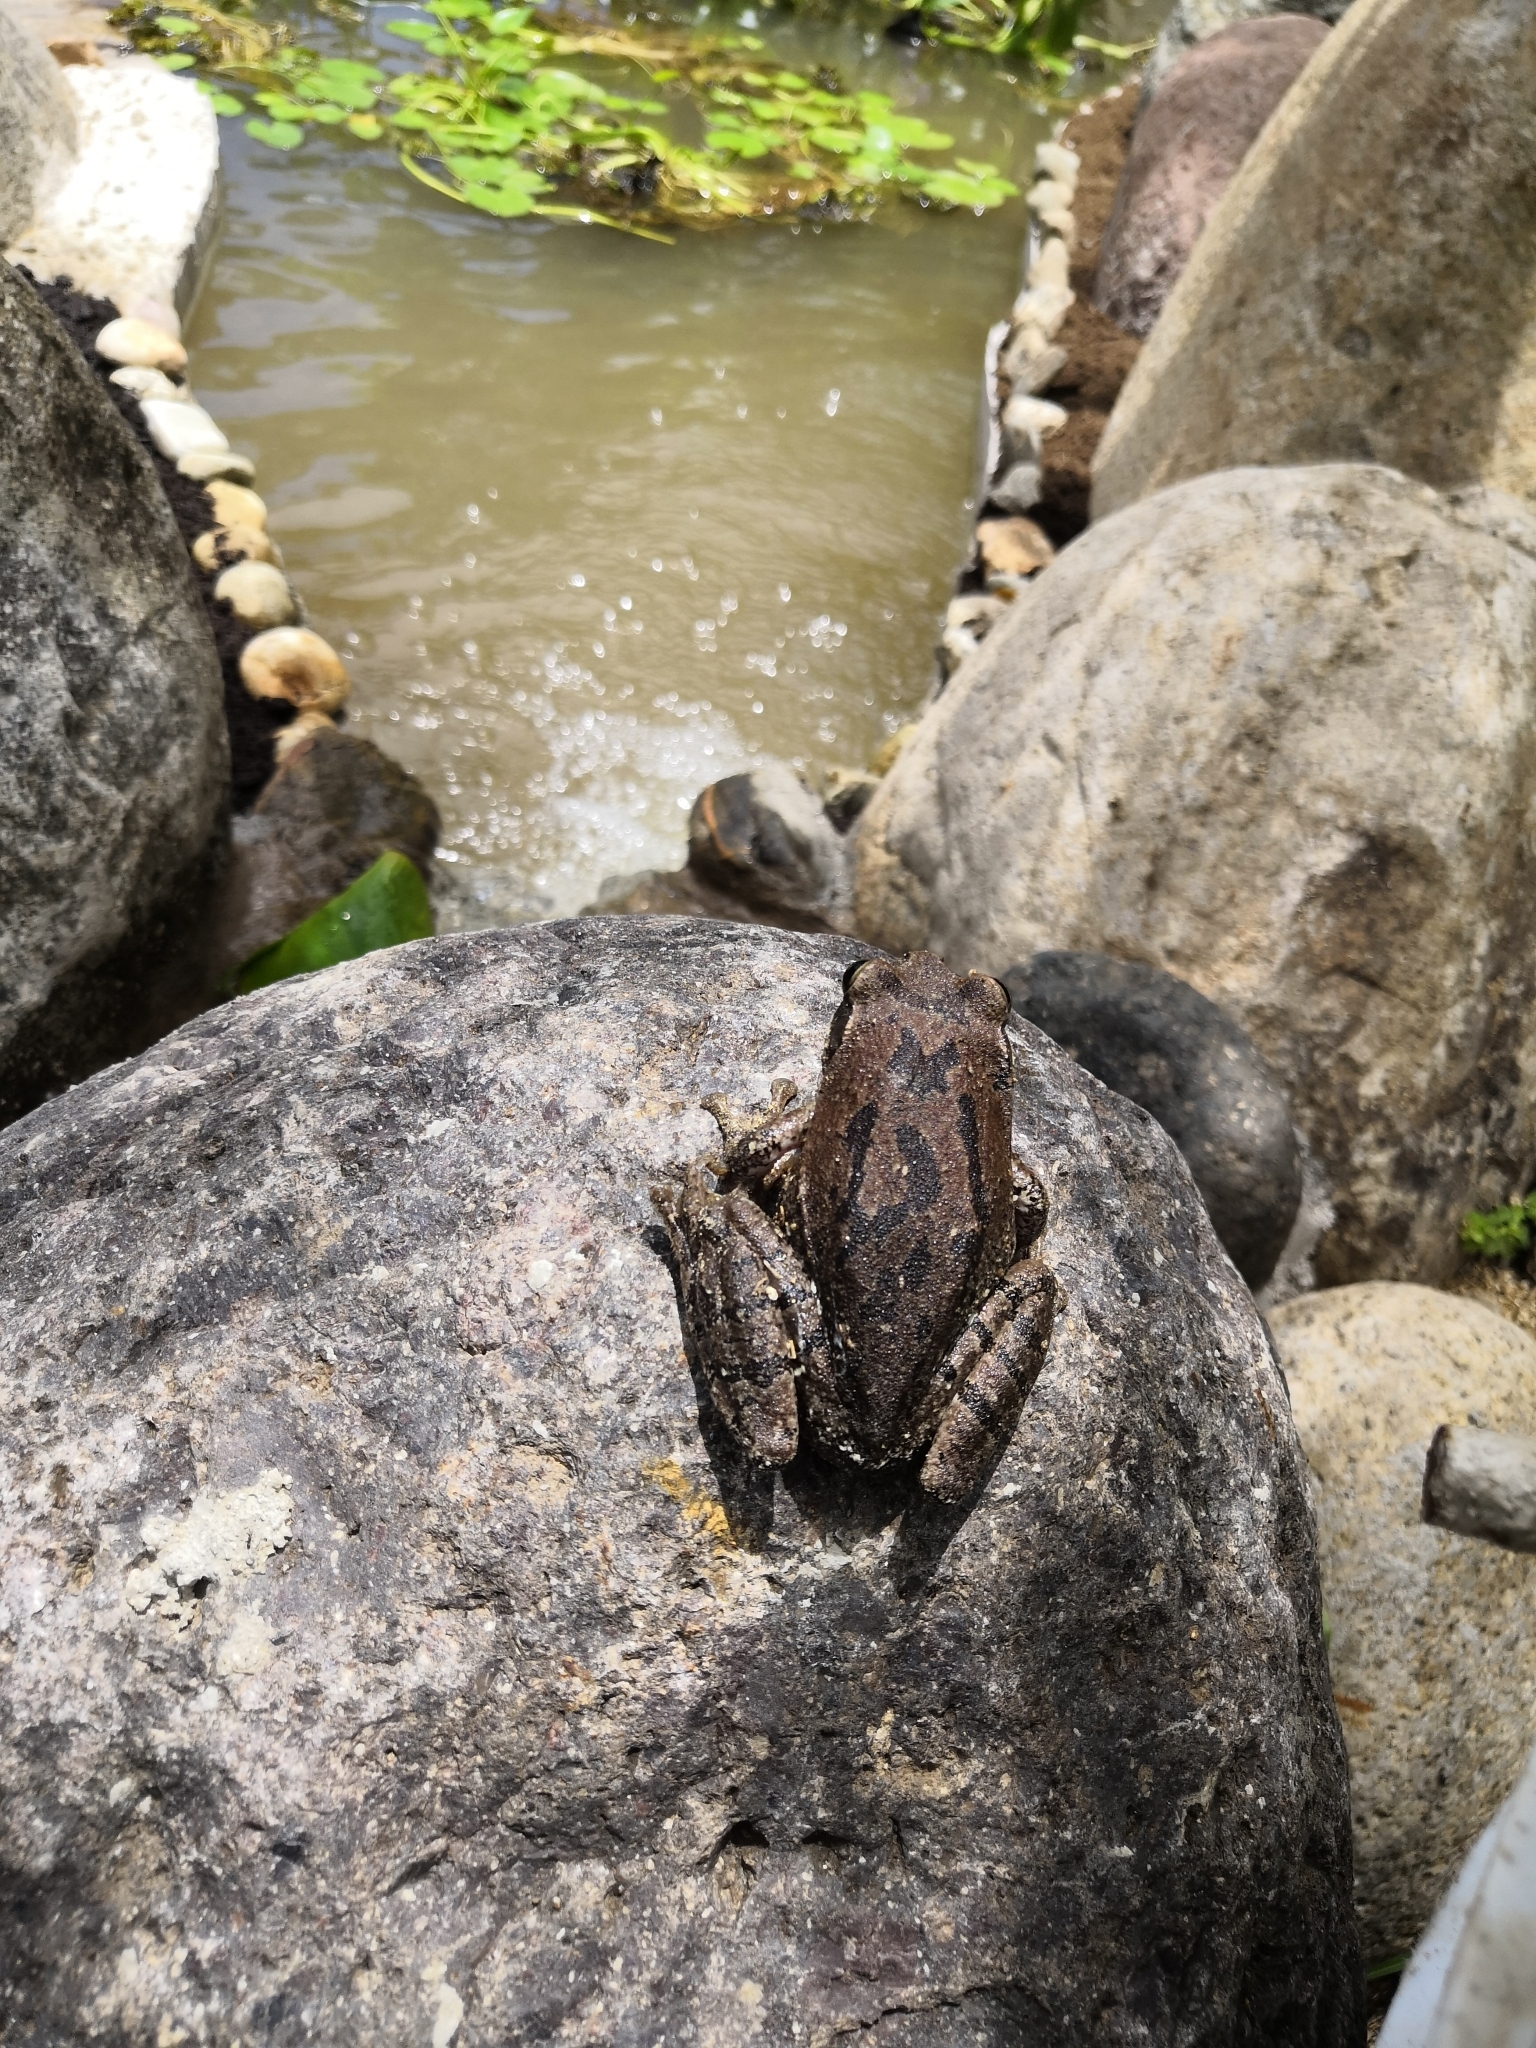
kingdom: Animalia
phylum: Chordata
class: Amphibia
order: Anura
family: Hylidae
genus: Smilisca
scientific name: Smilisca baudinii
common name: Mexican smilisca
